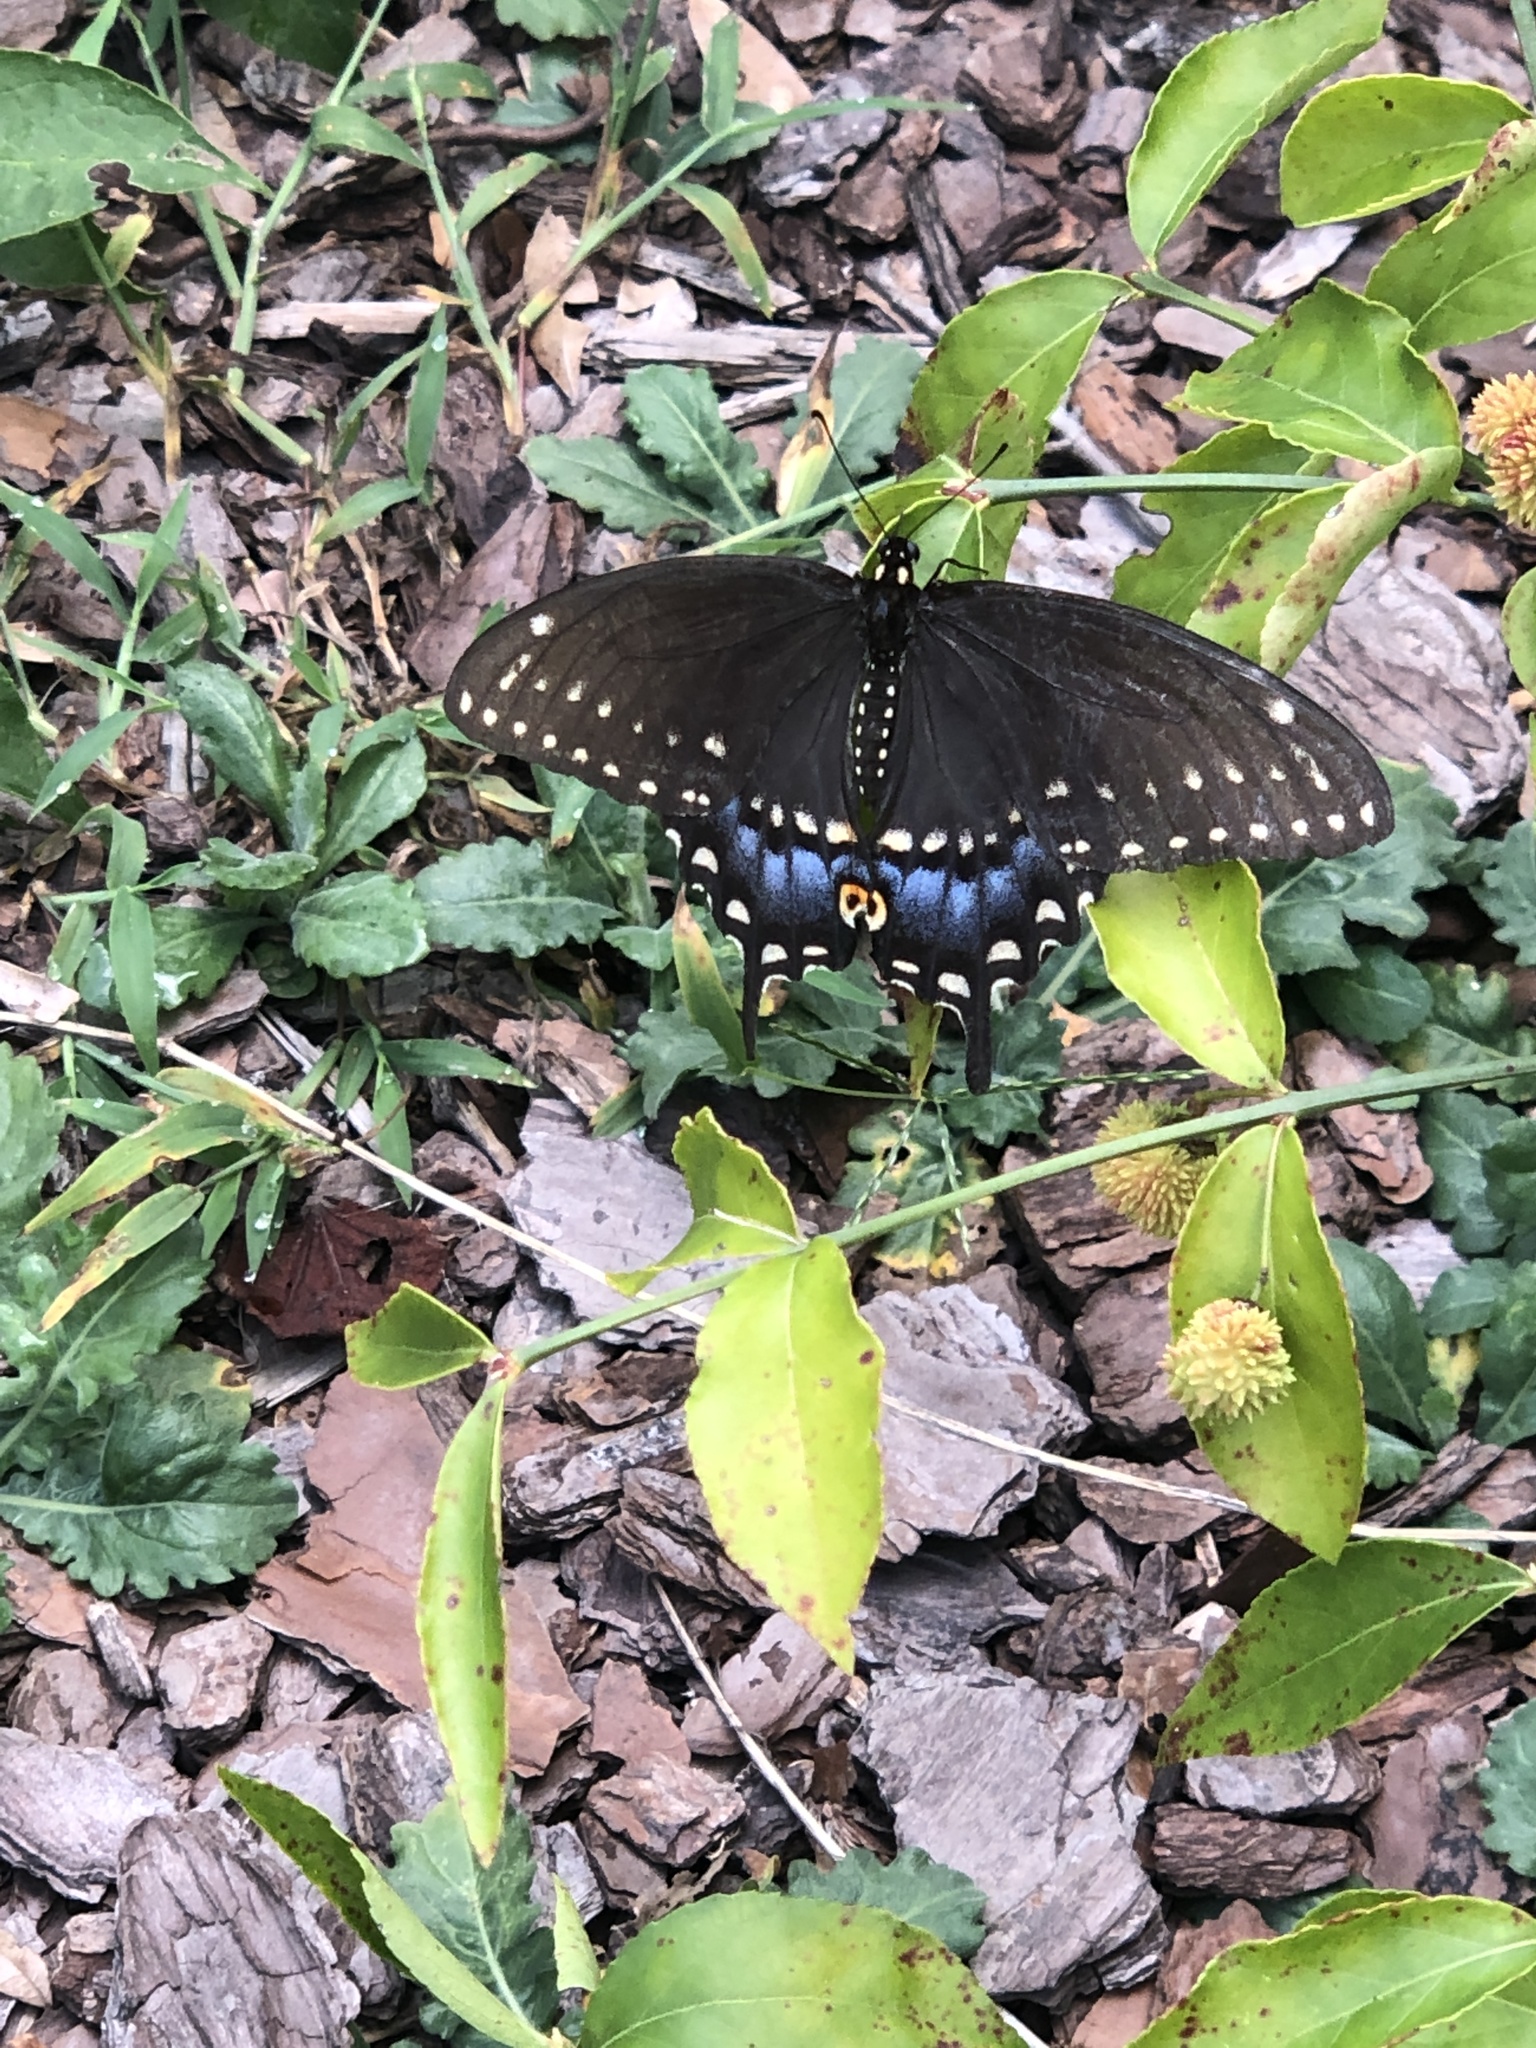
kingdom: Animalia
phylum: Arthropoda
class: Insecta
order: Lepidoptera
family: Papilionidae
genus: Papilio
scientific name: Papilio polyxenes
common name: Black swallowtail
